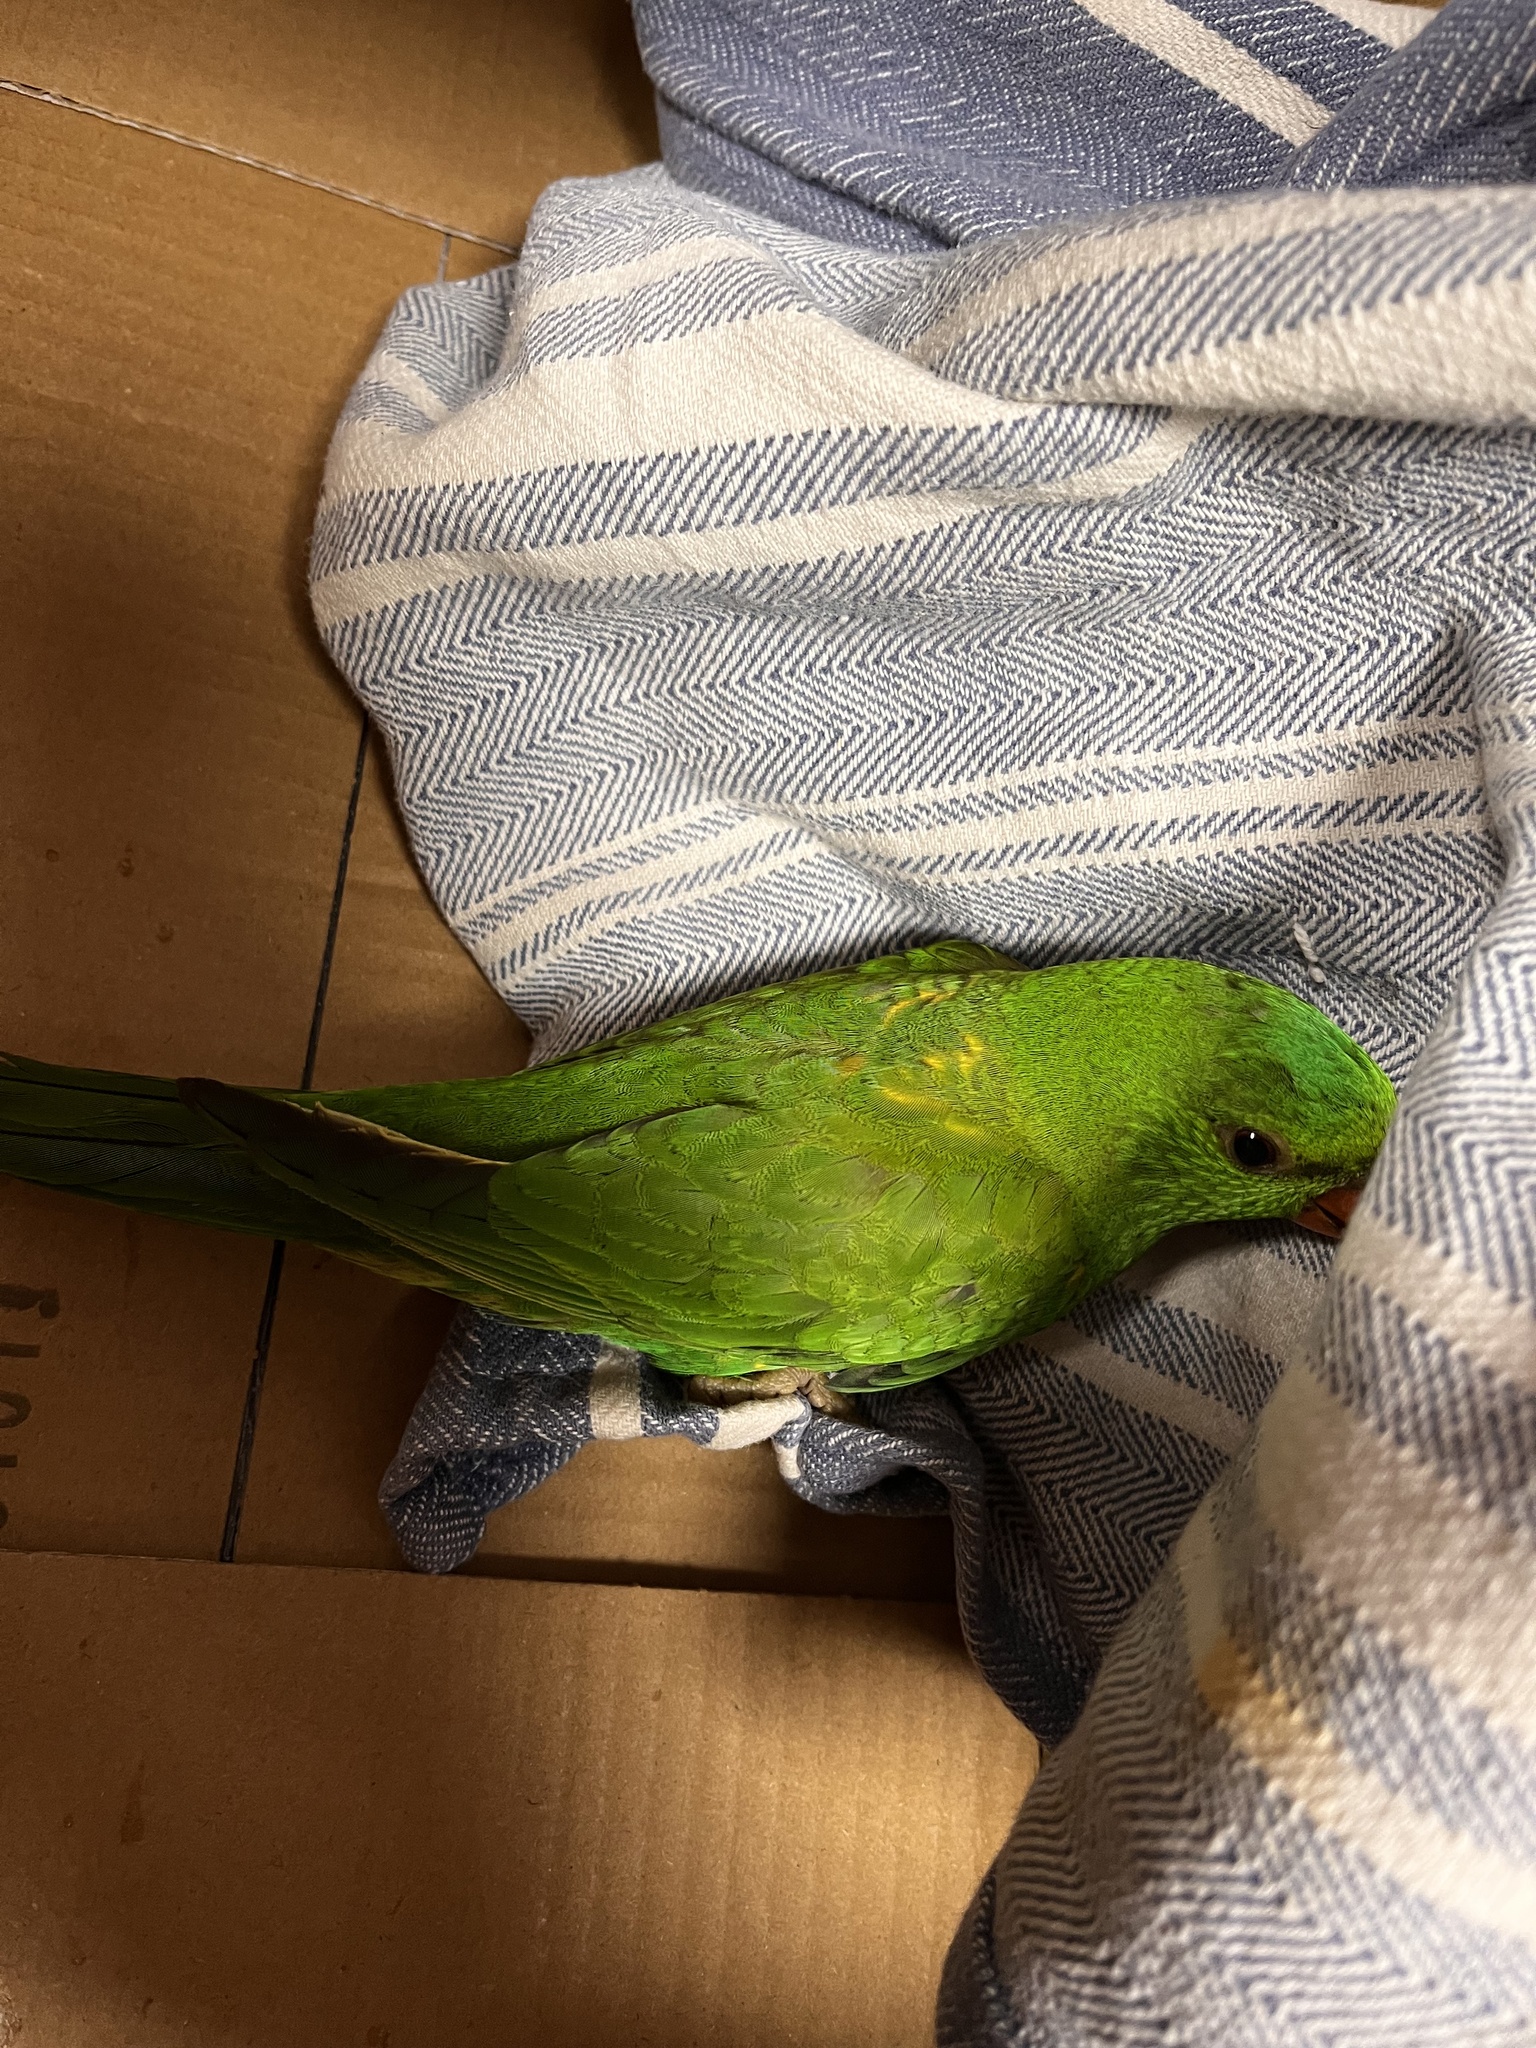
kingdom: Animalia
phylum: Chordata
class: Aves
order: Psittaciformes
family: Psittacidae
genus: Trichoglossus
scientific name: Trichoglossus chlorolepidotus
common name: Scaly-breasted lorikeet
